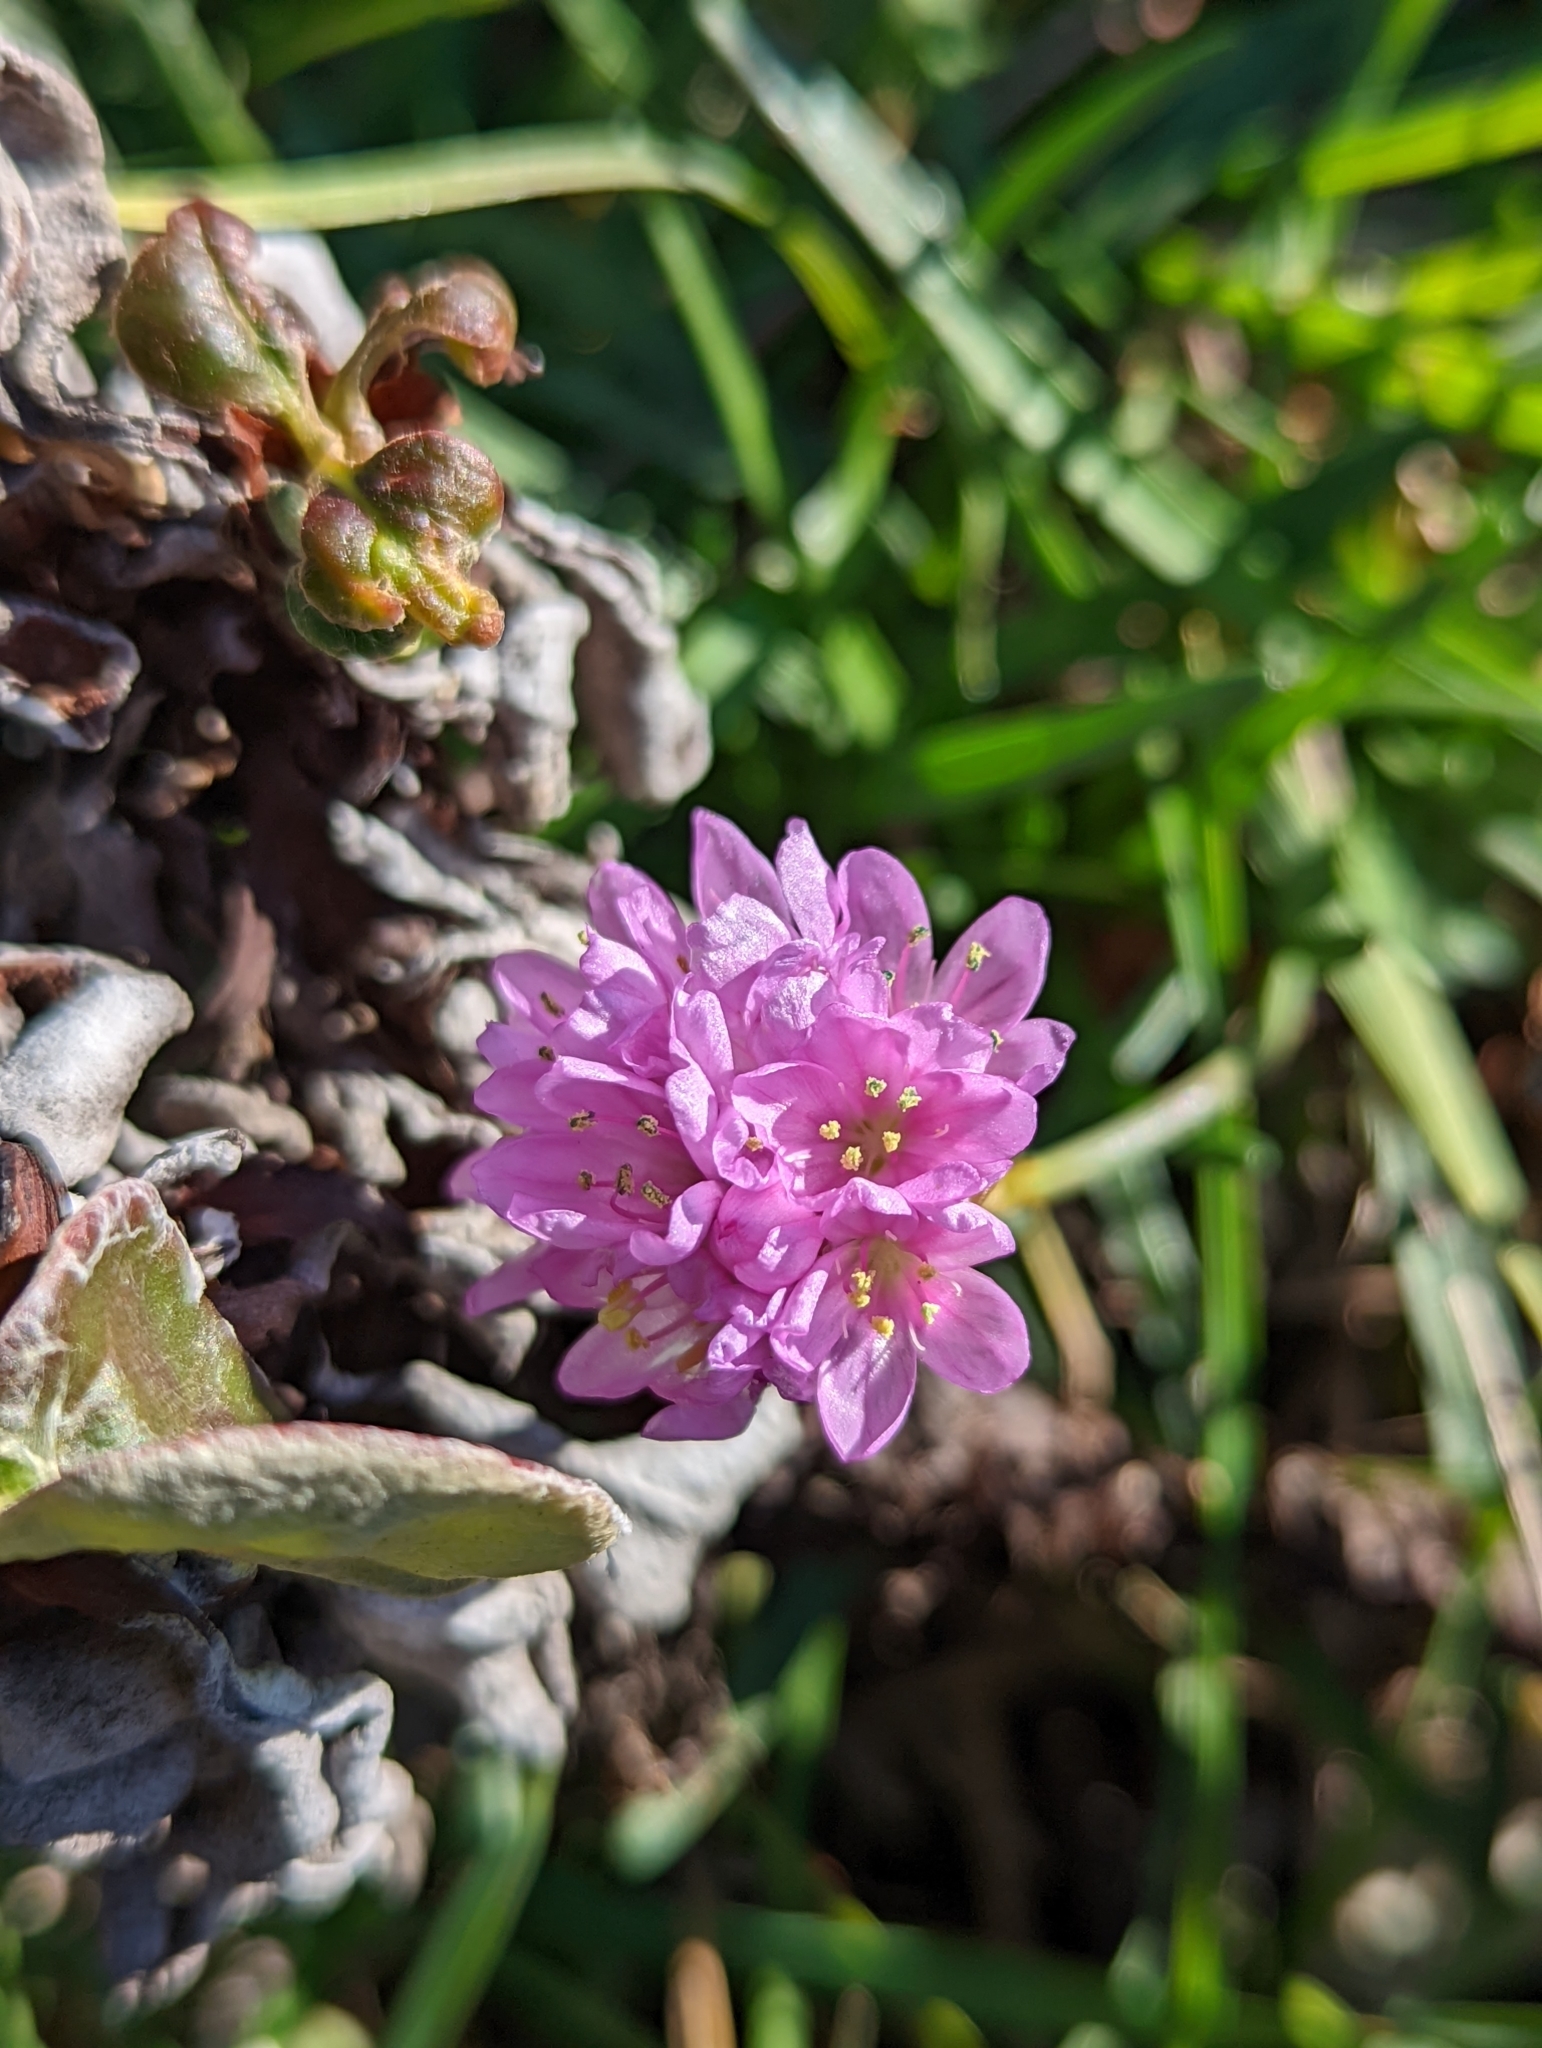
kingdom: Plantae
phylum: Tracheophyta
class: Magnoliopsida
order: Caryophyllales
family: Plumbaginaceae
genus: Armeria
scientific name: Armeria maritima
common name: Thrift
